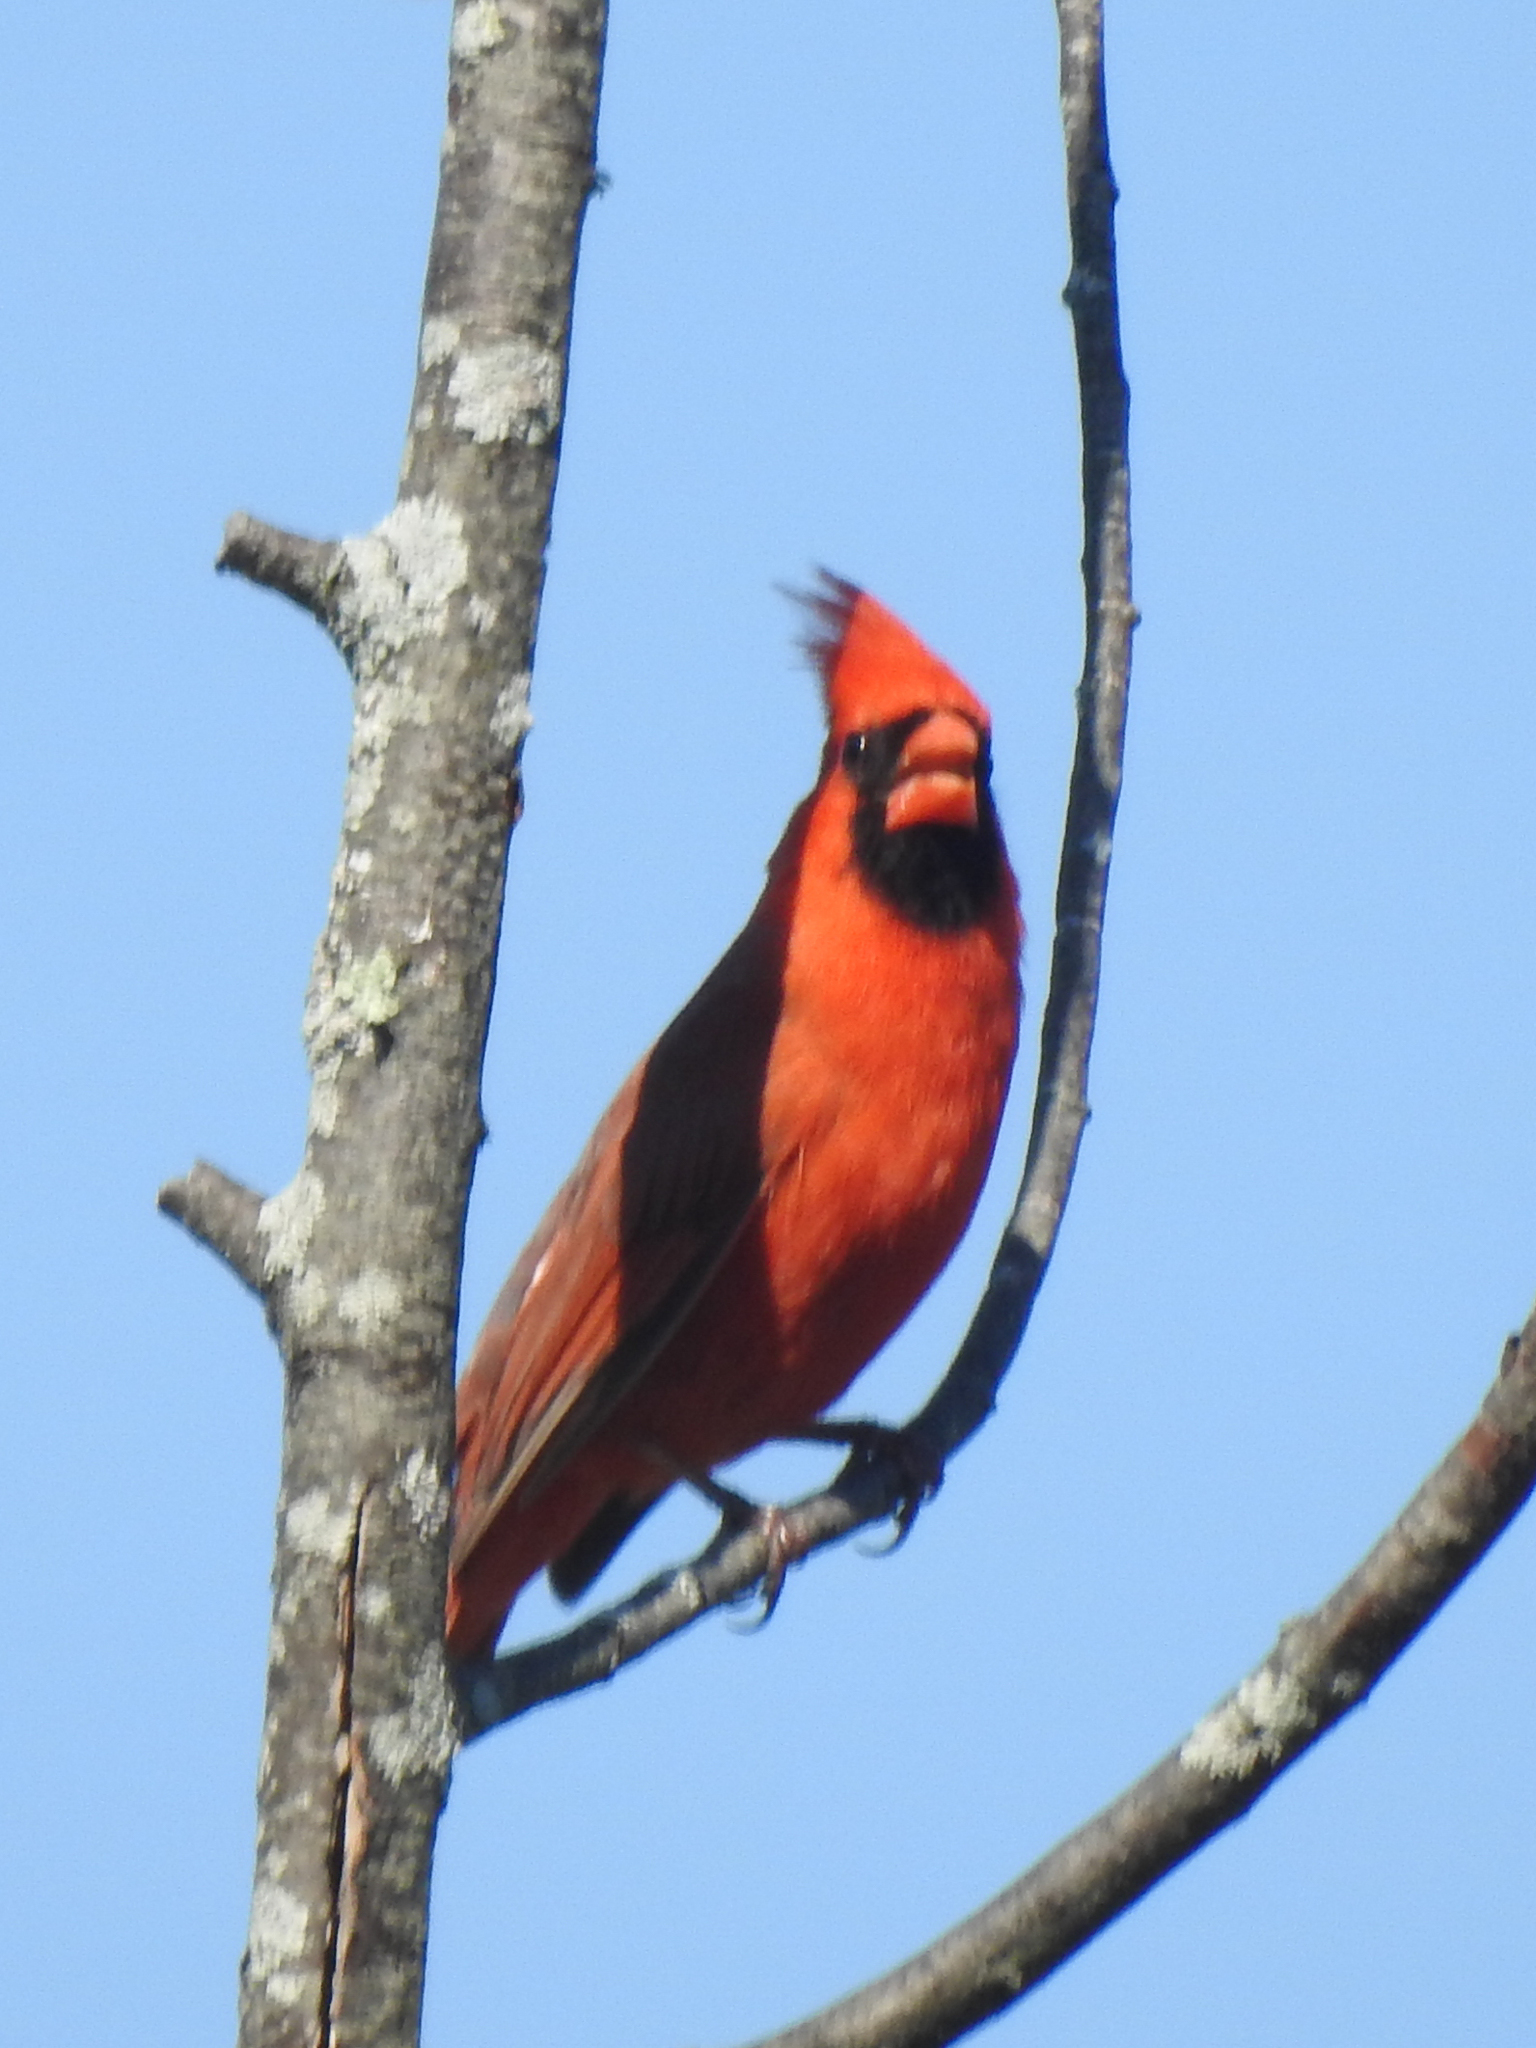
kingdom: Animalia
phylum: Chordata
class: Aves
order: Passeriformes
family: Cardinalidae
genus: Cardinalis
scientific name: Cardinalis cardinalis
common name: Northern cardinal
